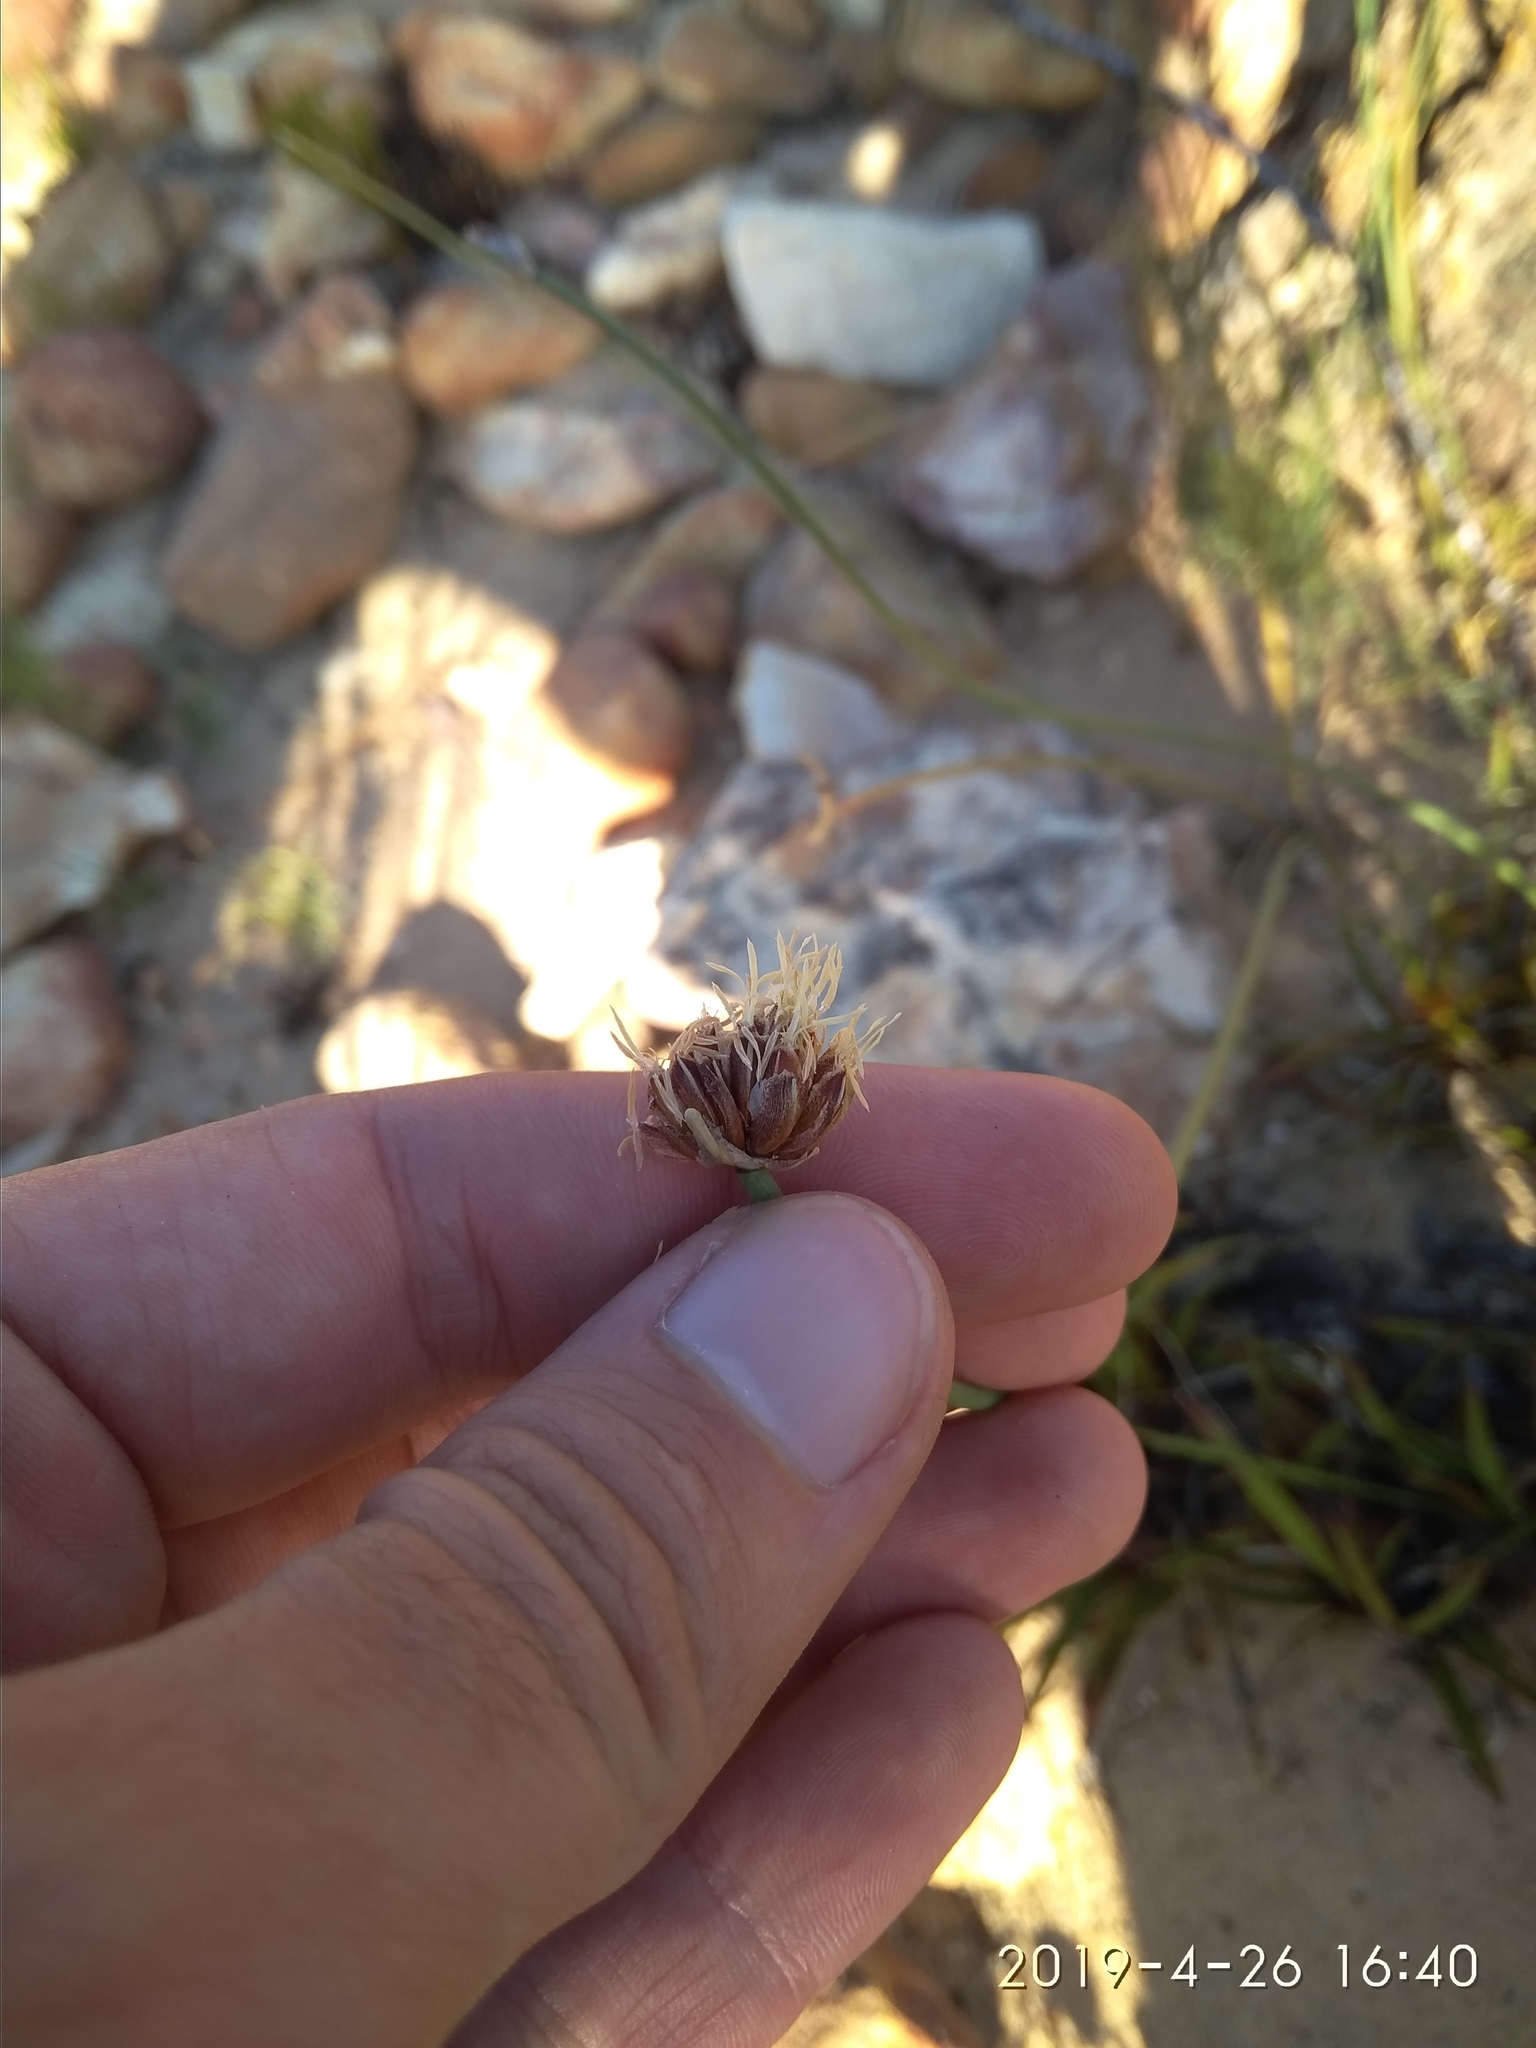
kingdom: Plantae
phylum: Tracheophyta
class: Liliopsida
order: Poales
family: Cyperaceae
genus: Ficinia
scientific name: Ficinia pinguior
